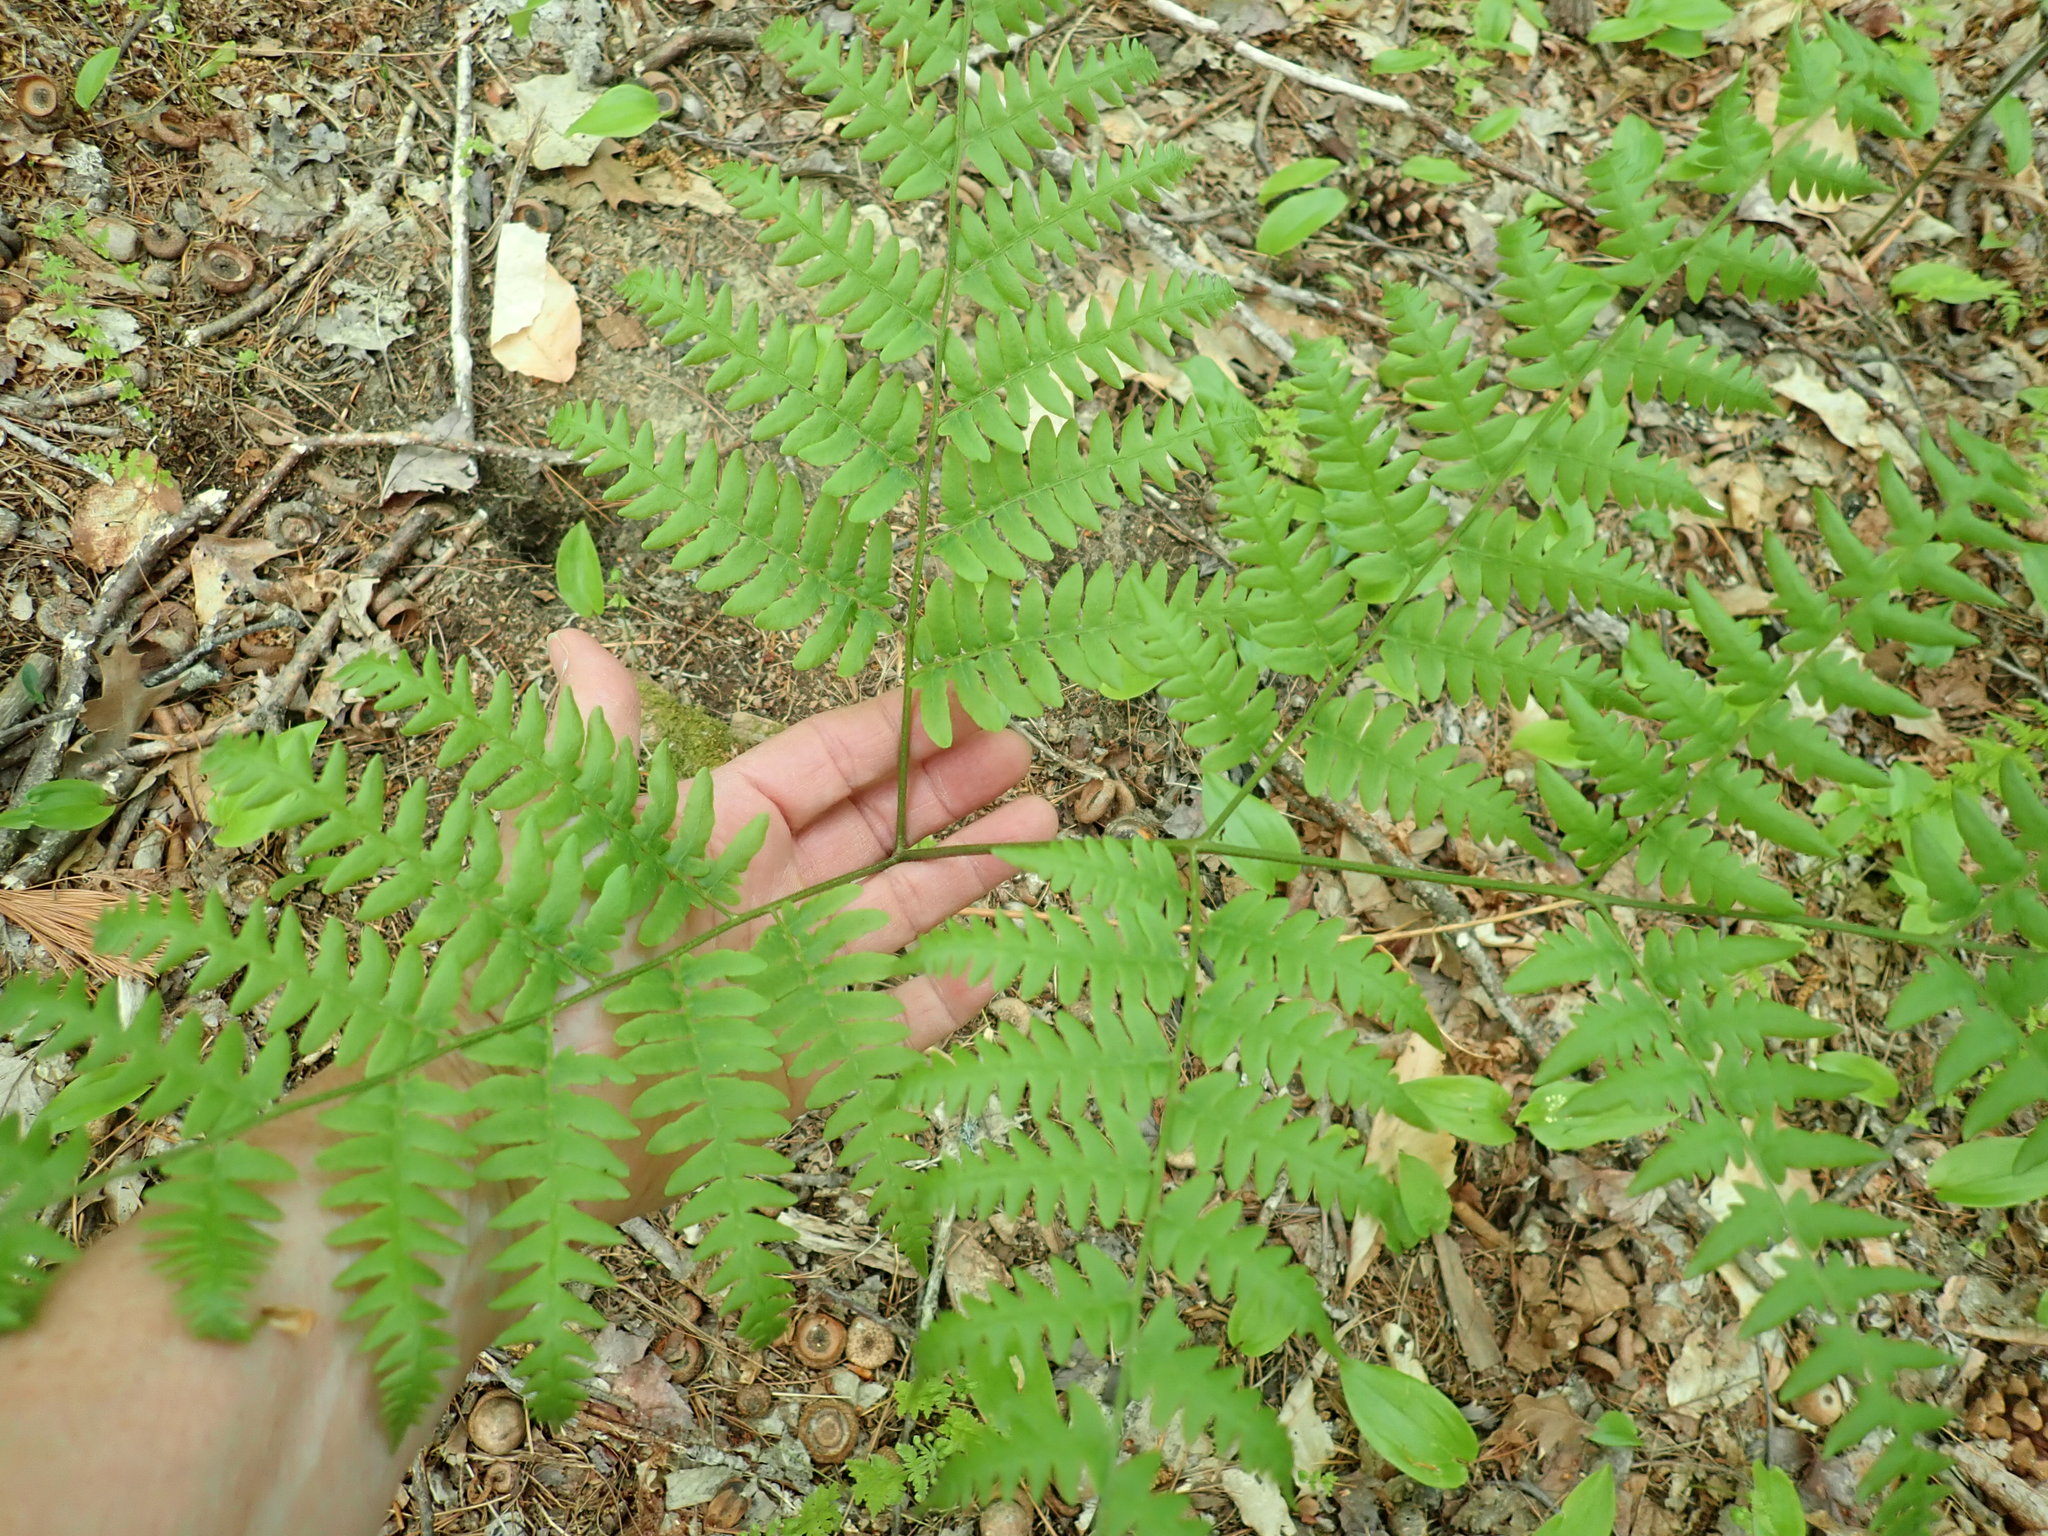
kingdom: Plantae
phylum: Tracheophyta
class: Polypodiopsida
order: Polypodiales
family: Dennstaedtiaceae
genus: Pteridium
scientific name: Pteridium aquilinum
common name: Bracken
